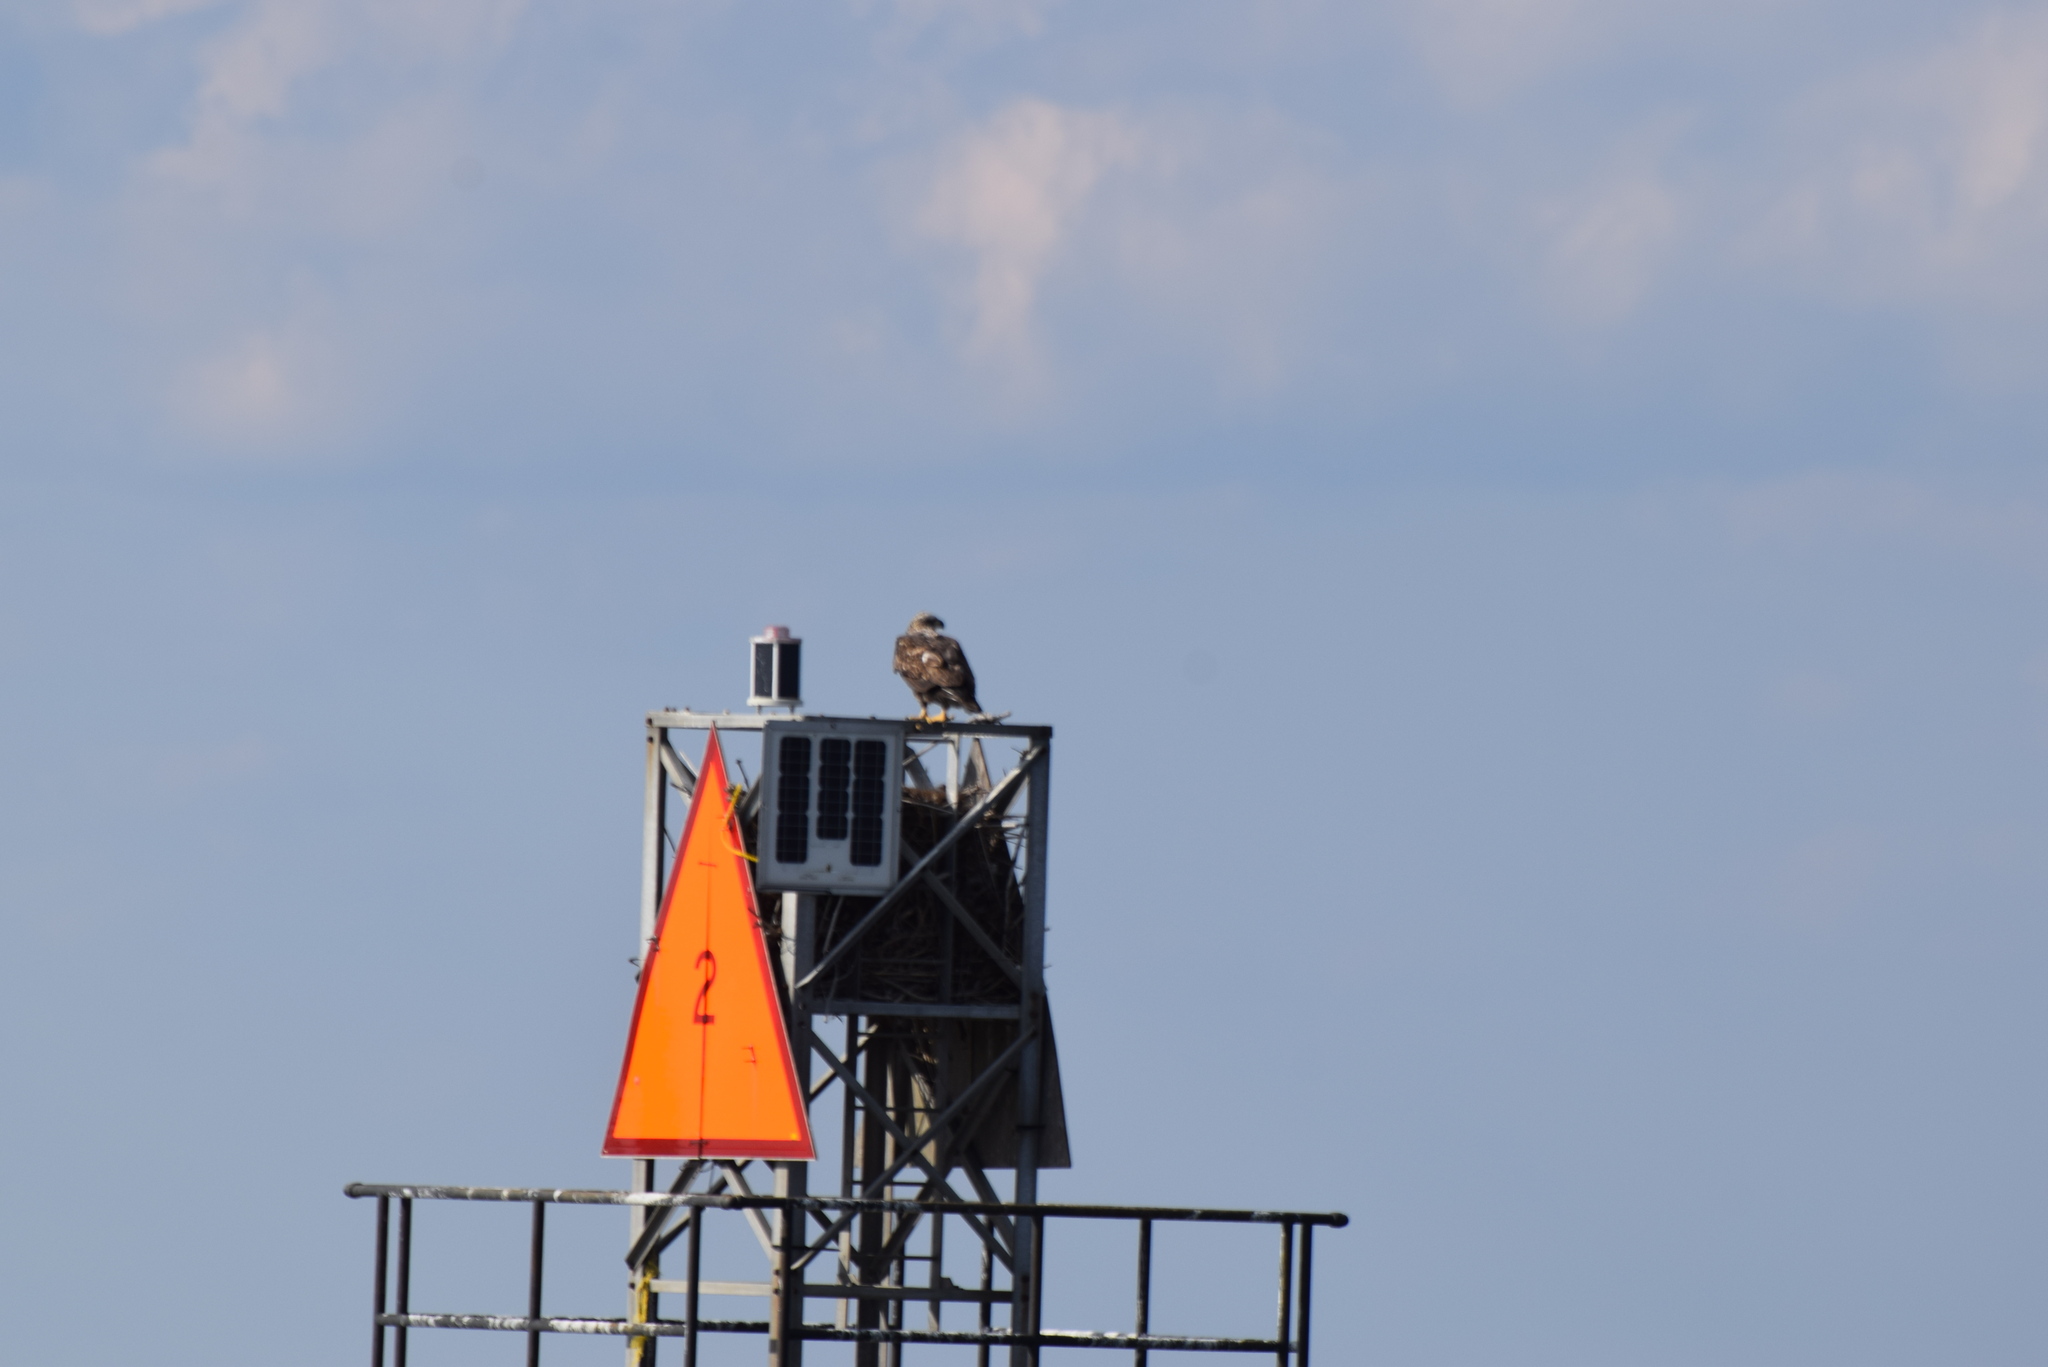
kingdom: Animalia
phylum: Chordata
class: Aves
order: Accipitriformes
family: Accipitridae
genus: Haliaeetus
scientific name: Haliaeetus leucocephalus
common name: Bald eagle
